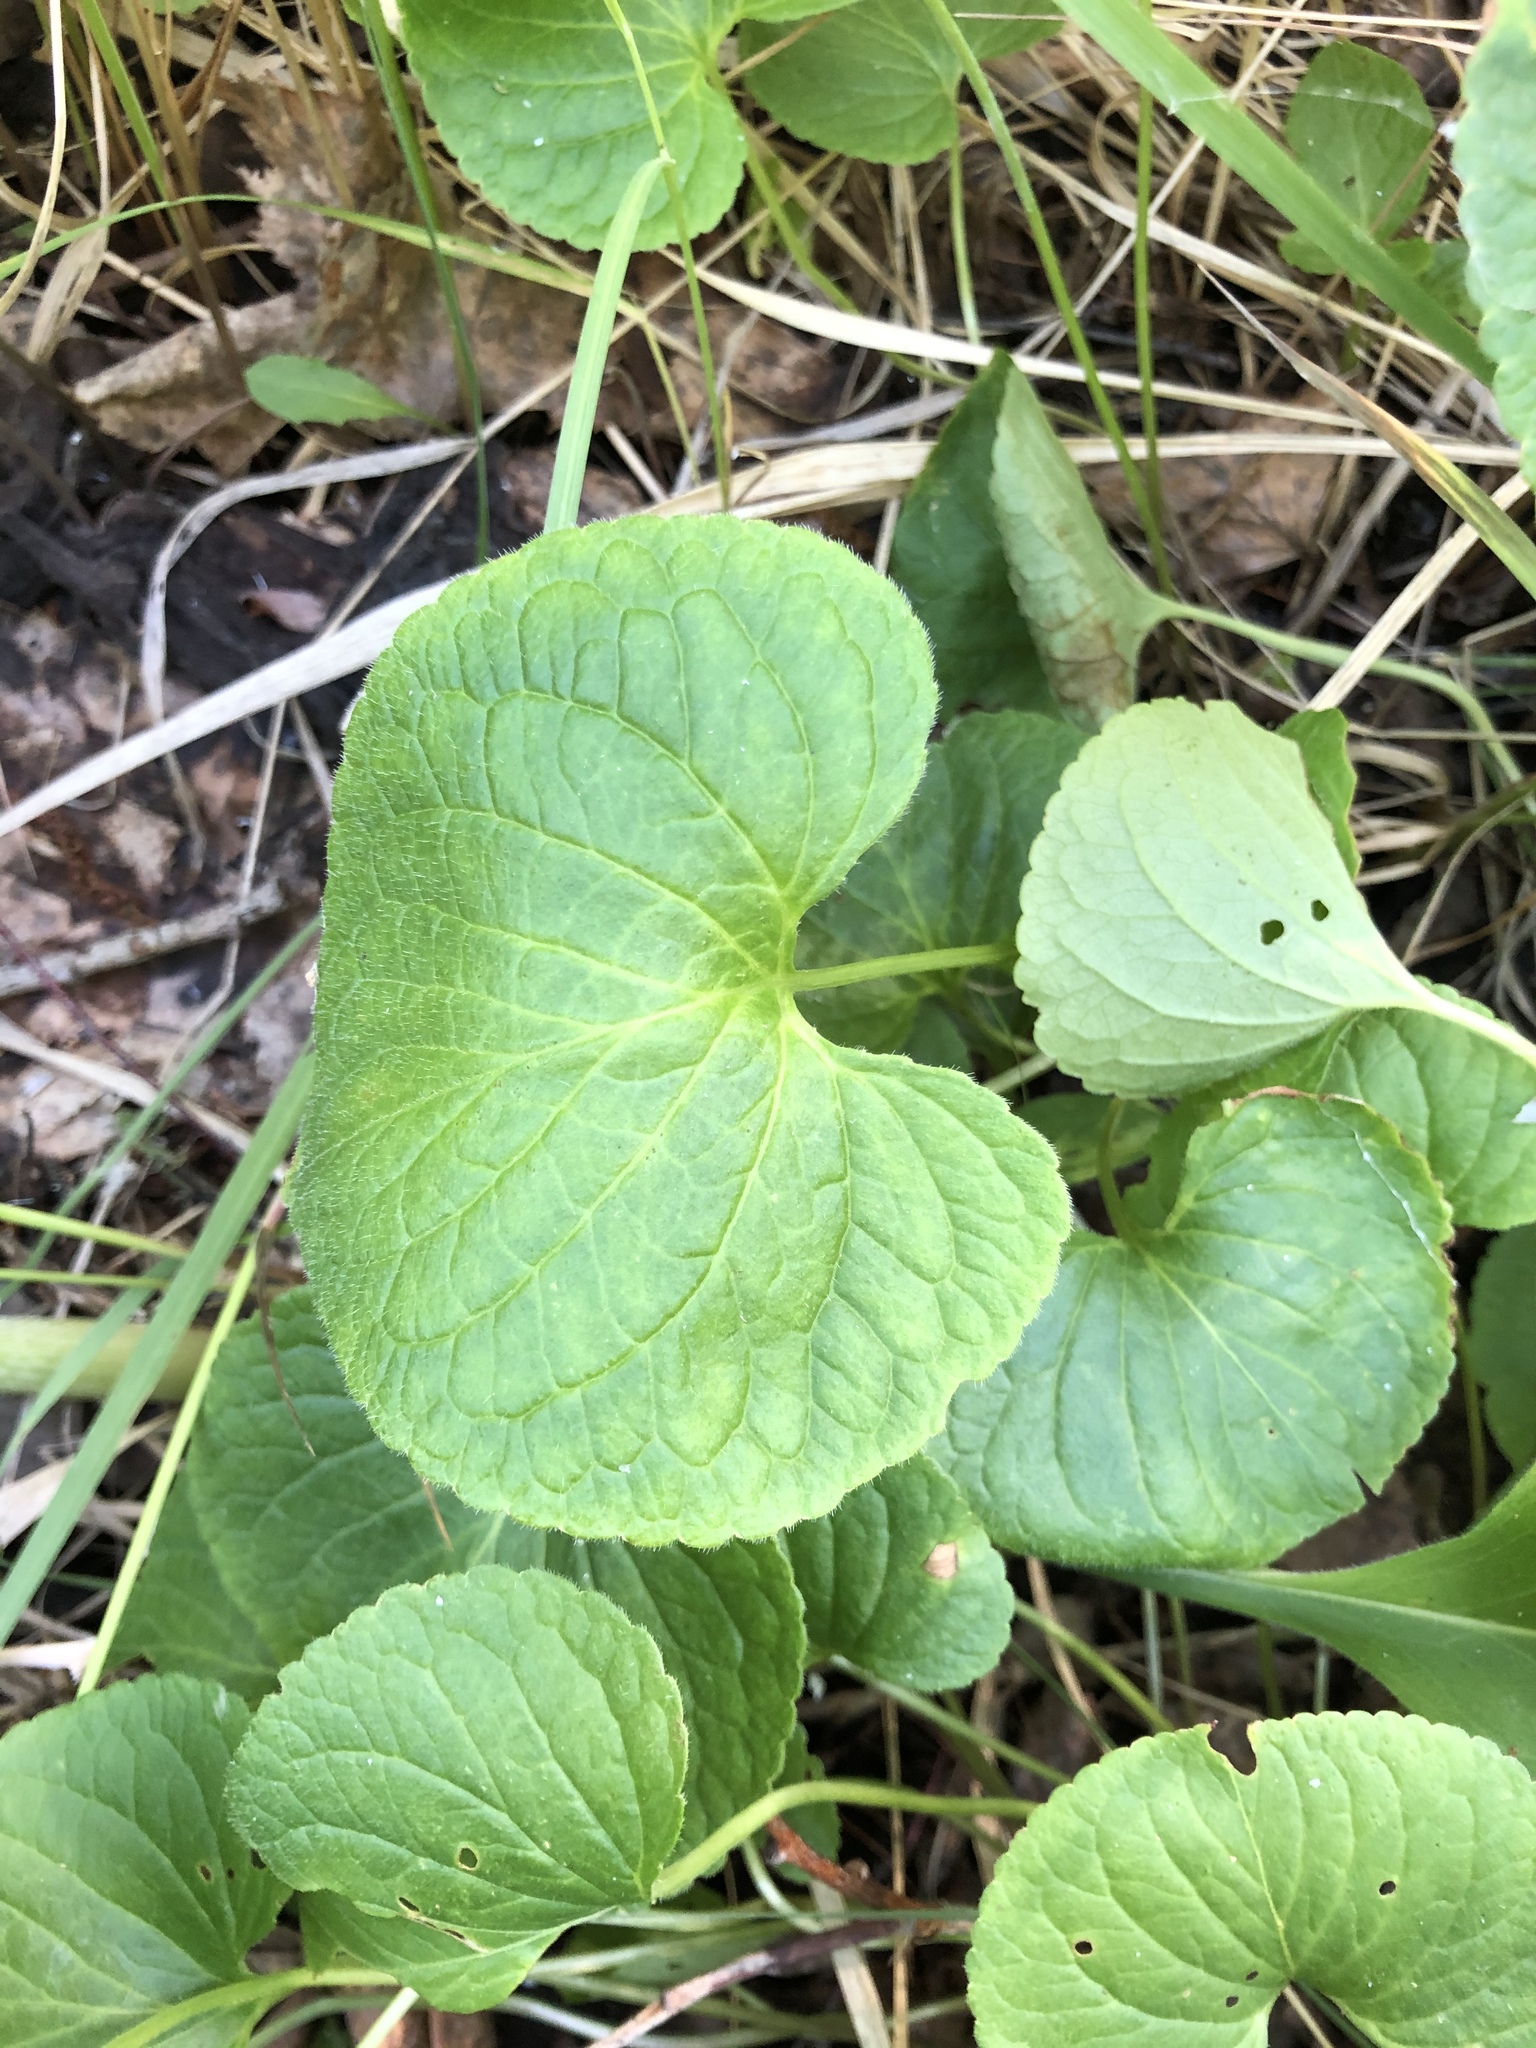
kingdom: Plantae
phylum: Tracheophyta
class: Magnoliopsida
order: Malpighiales
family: Violaceae
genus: Viola
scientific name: Viola mirabilis
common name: Wonder violet
